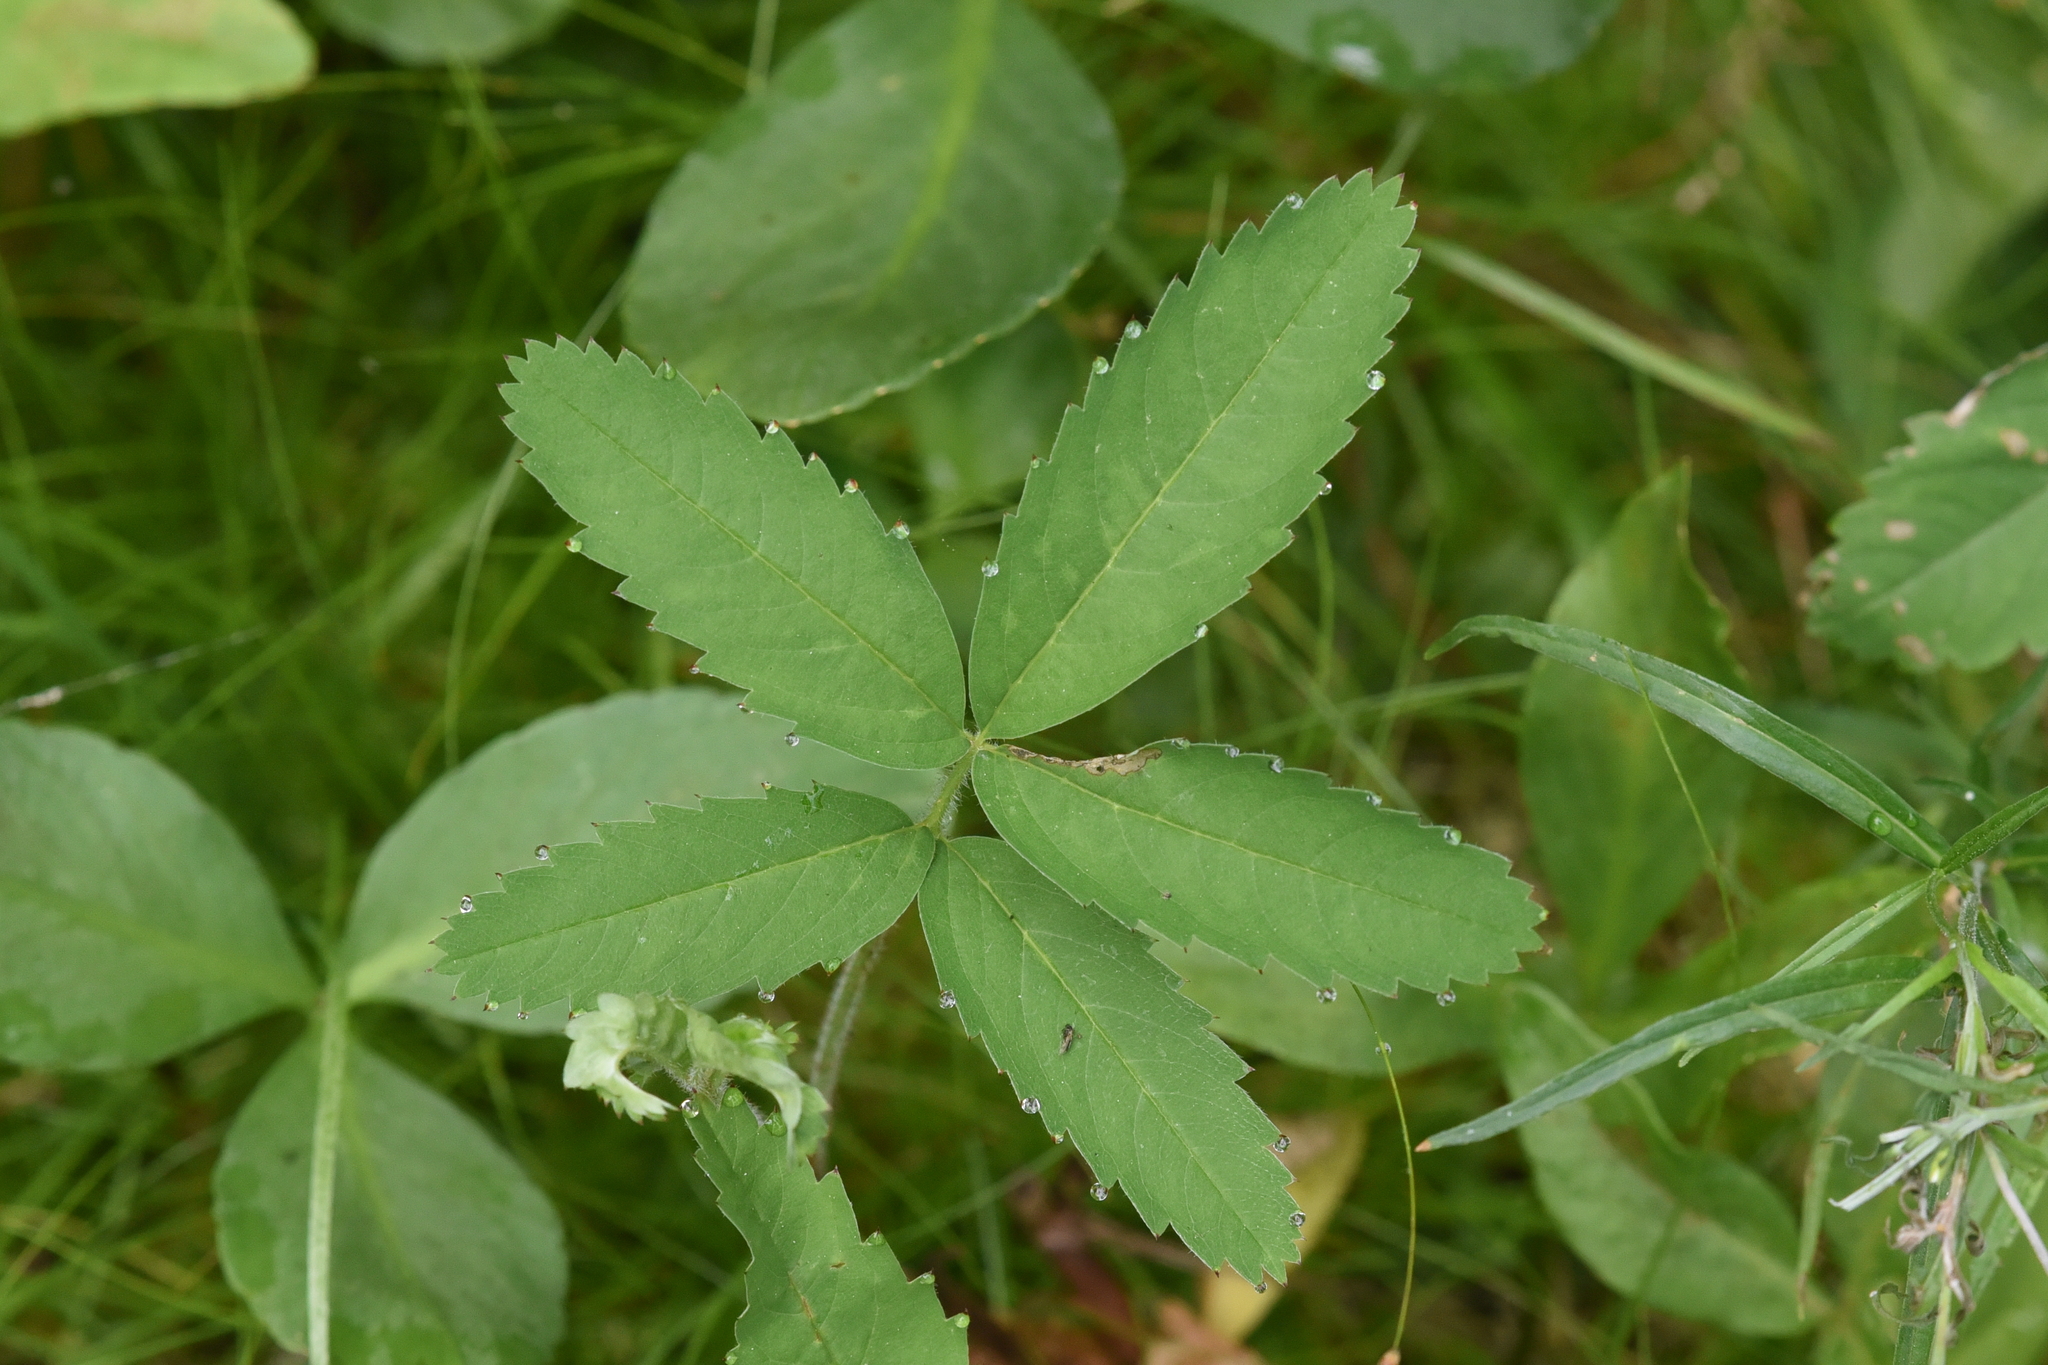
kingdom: Plantae
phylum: Tracheophyta
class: Magnoliopsida
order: Rosales
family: Rosaceae
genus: Comarum
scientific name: Comarum palustre
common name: Marsh cinquefoil
